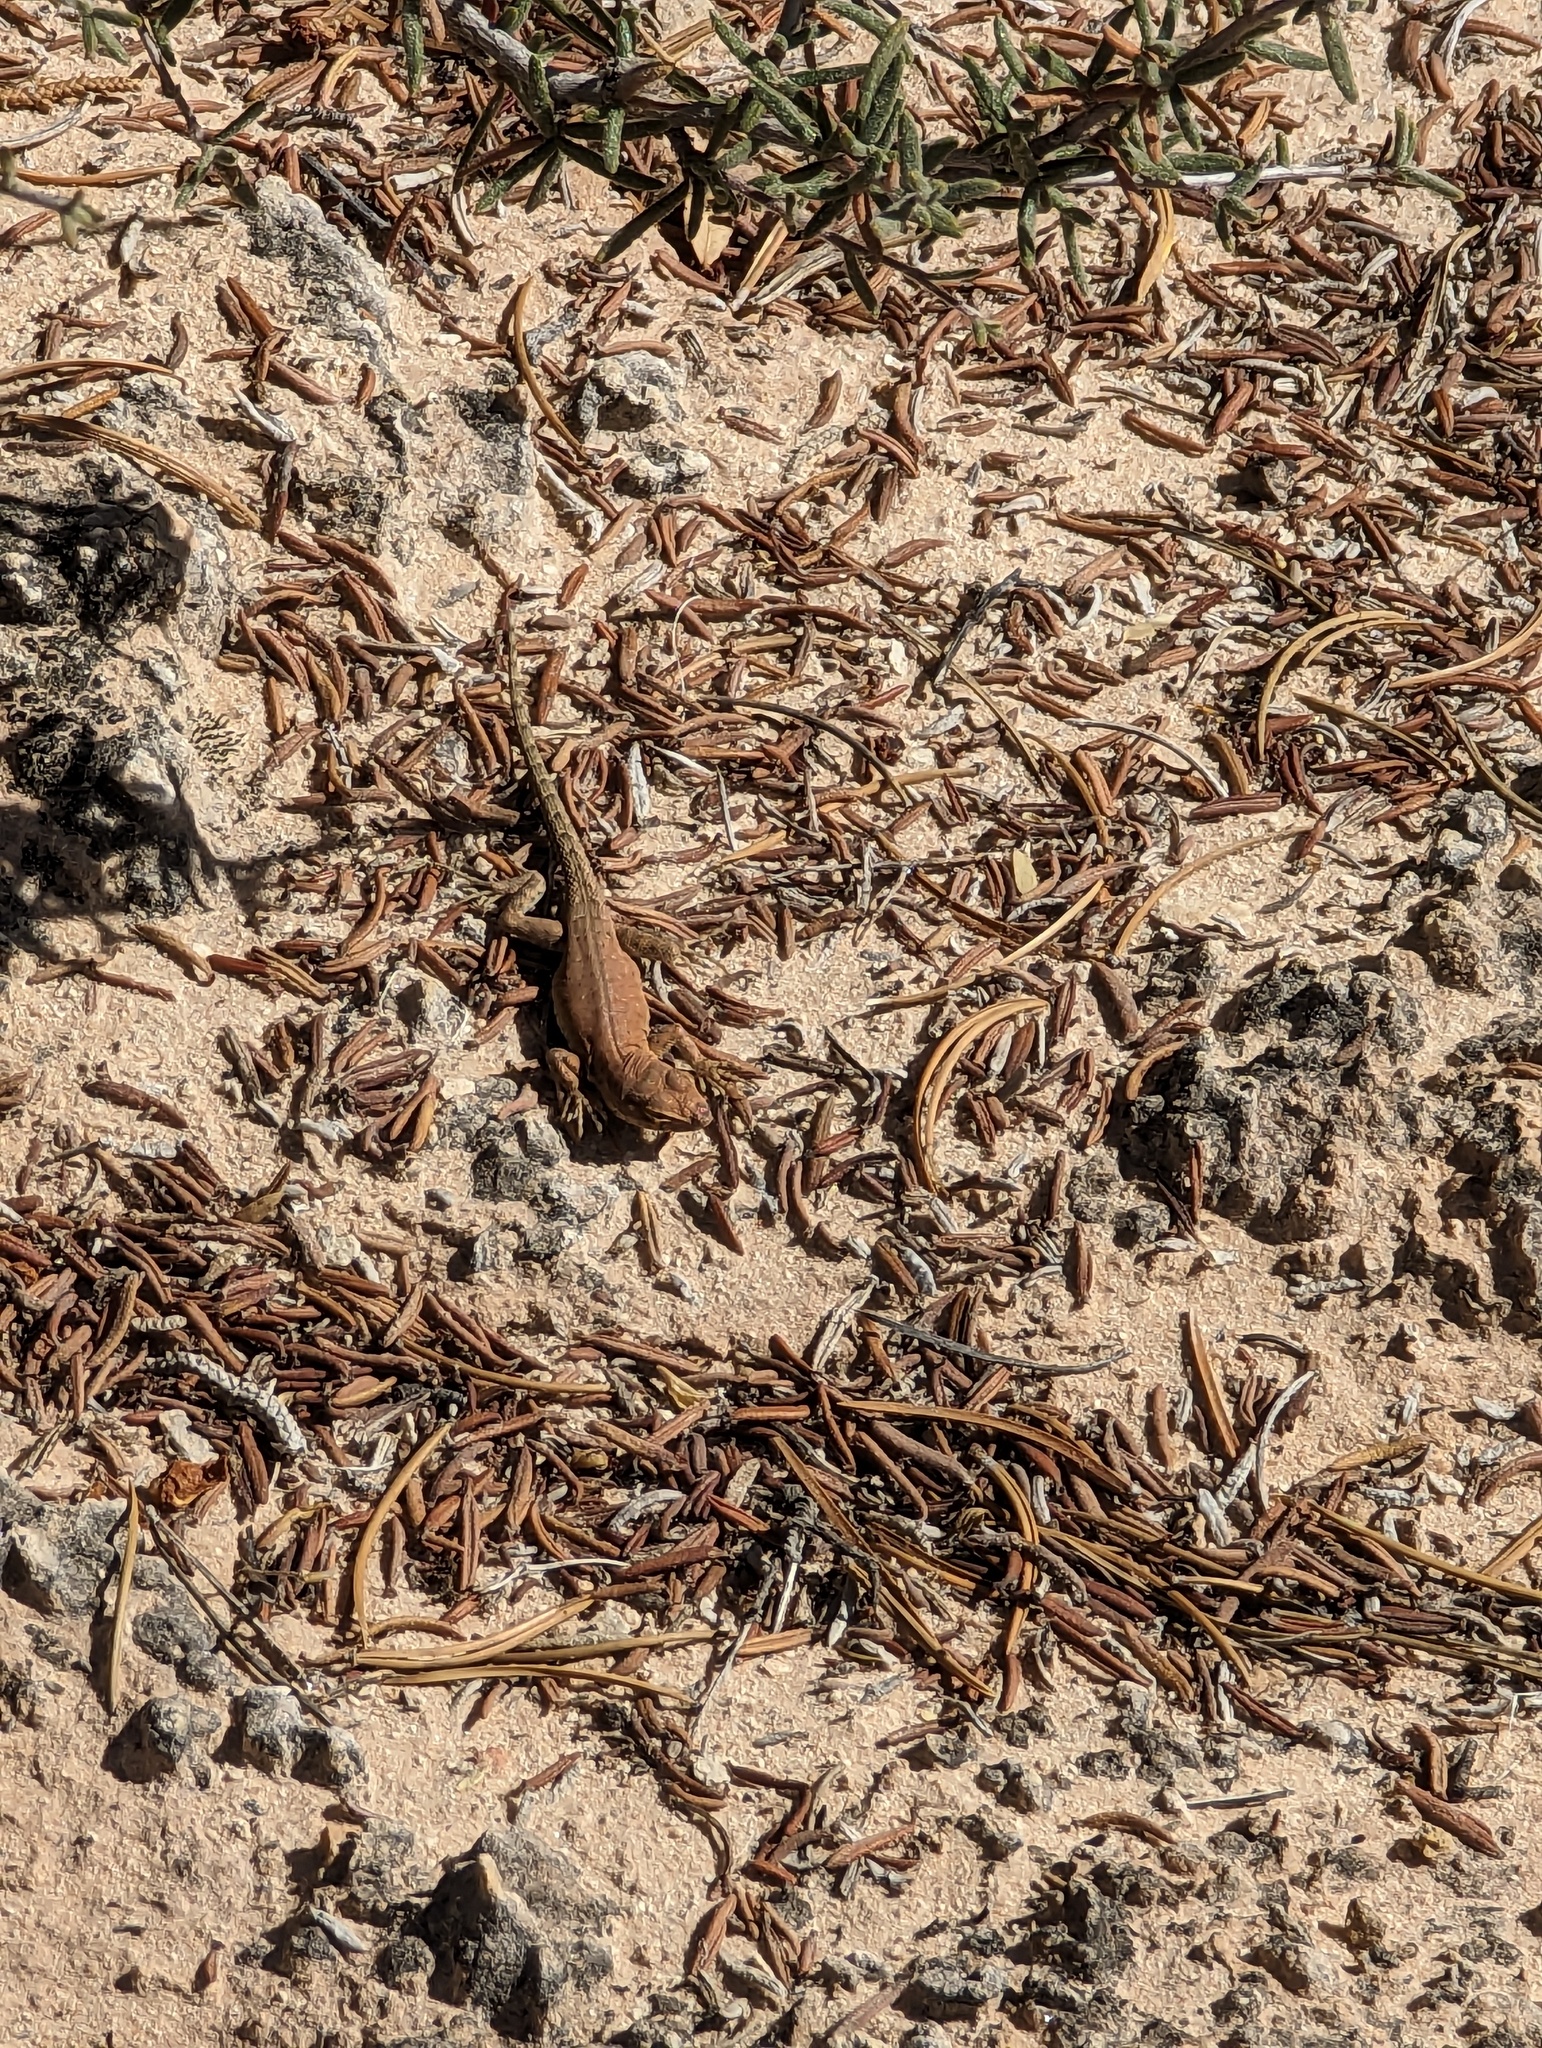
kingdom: Animalia
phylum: Chordata
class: Squamata
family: Phrynosomatidae
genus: Uta
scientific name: Uta stansburiana
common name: Side-blotched lizard
